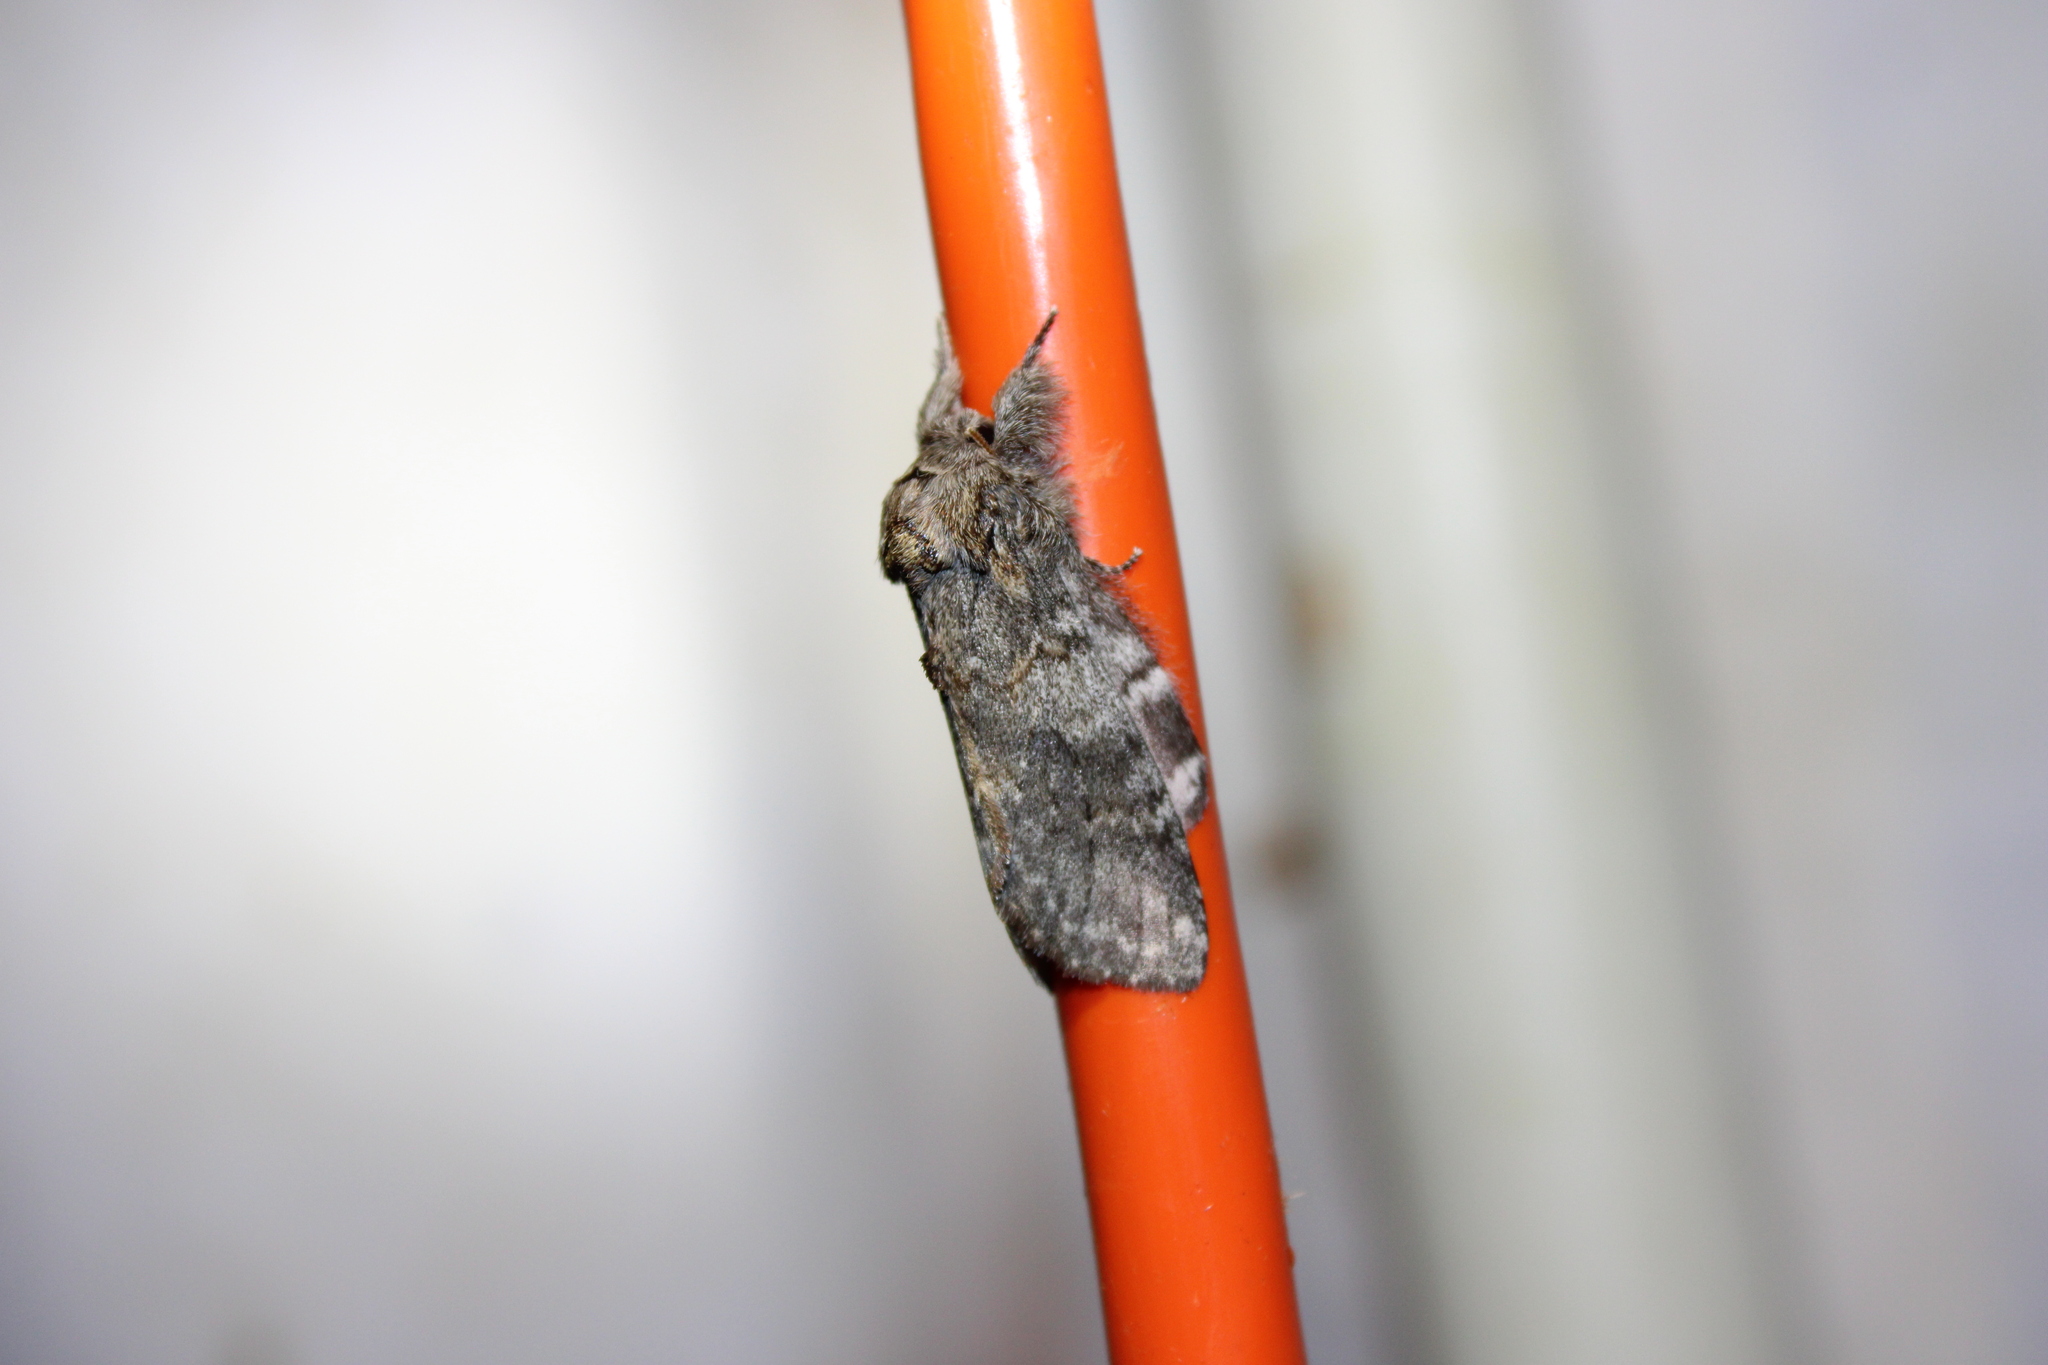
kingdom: Animalia
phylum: Arthropoda
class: Insecta
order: Lepidoptera
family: Notodontidae
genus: Peridea
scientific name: Peridea angulosa
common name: Angulose prominent
